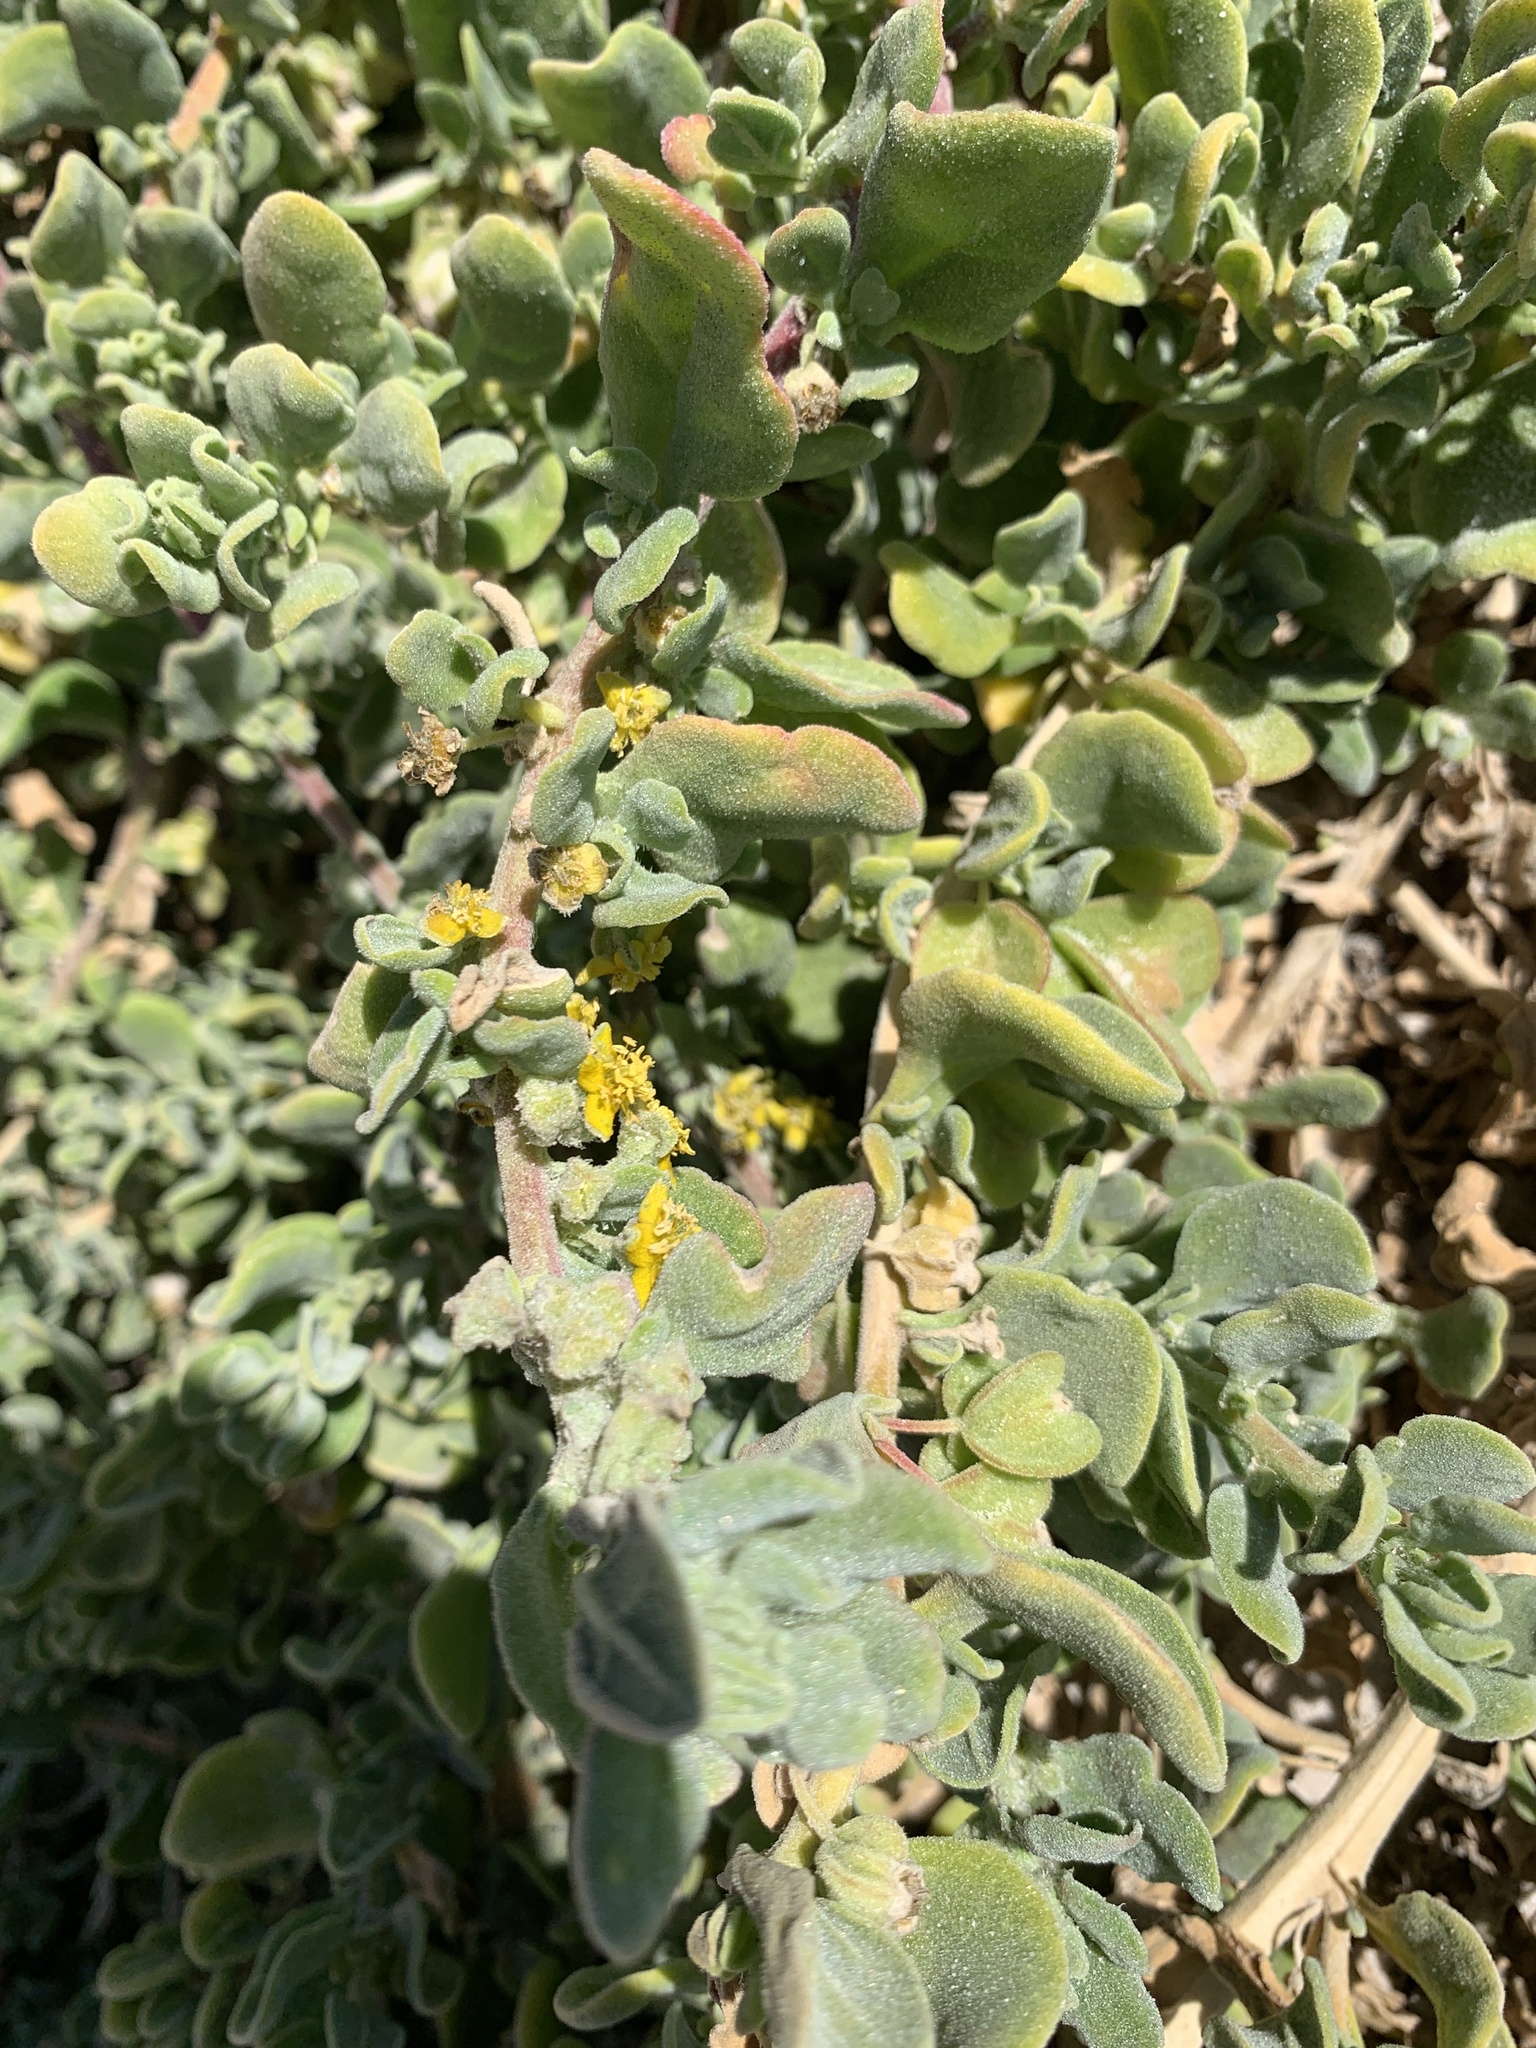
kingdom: Plantae
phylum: Tracheophyta
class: Magnoliopsida
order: Caryophyllales
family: Aizoaceae
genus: Tetragonia
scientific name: Tetragonia decumbens
